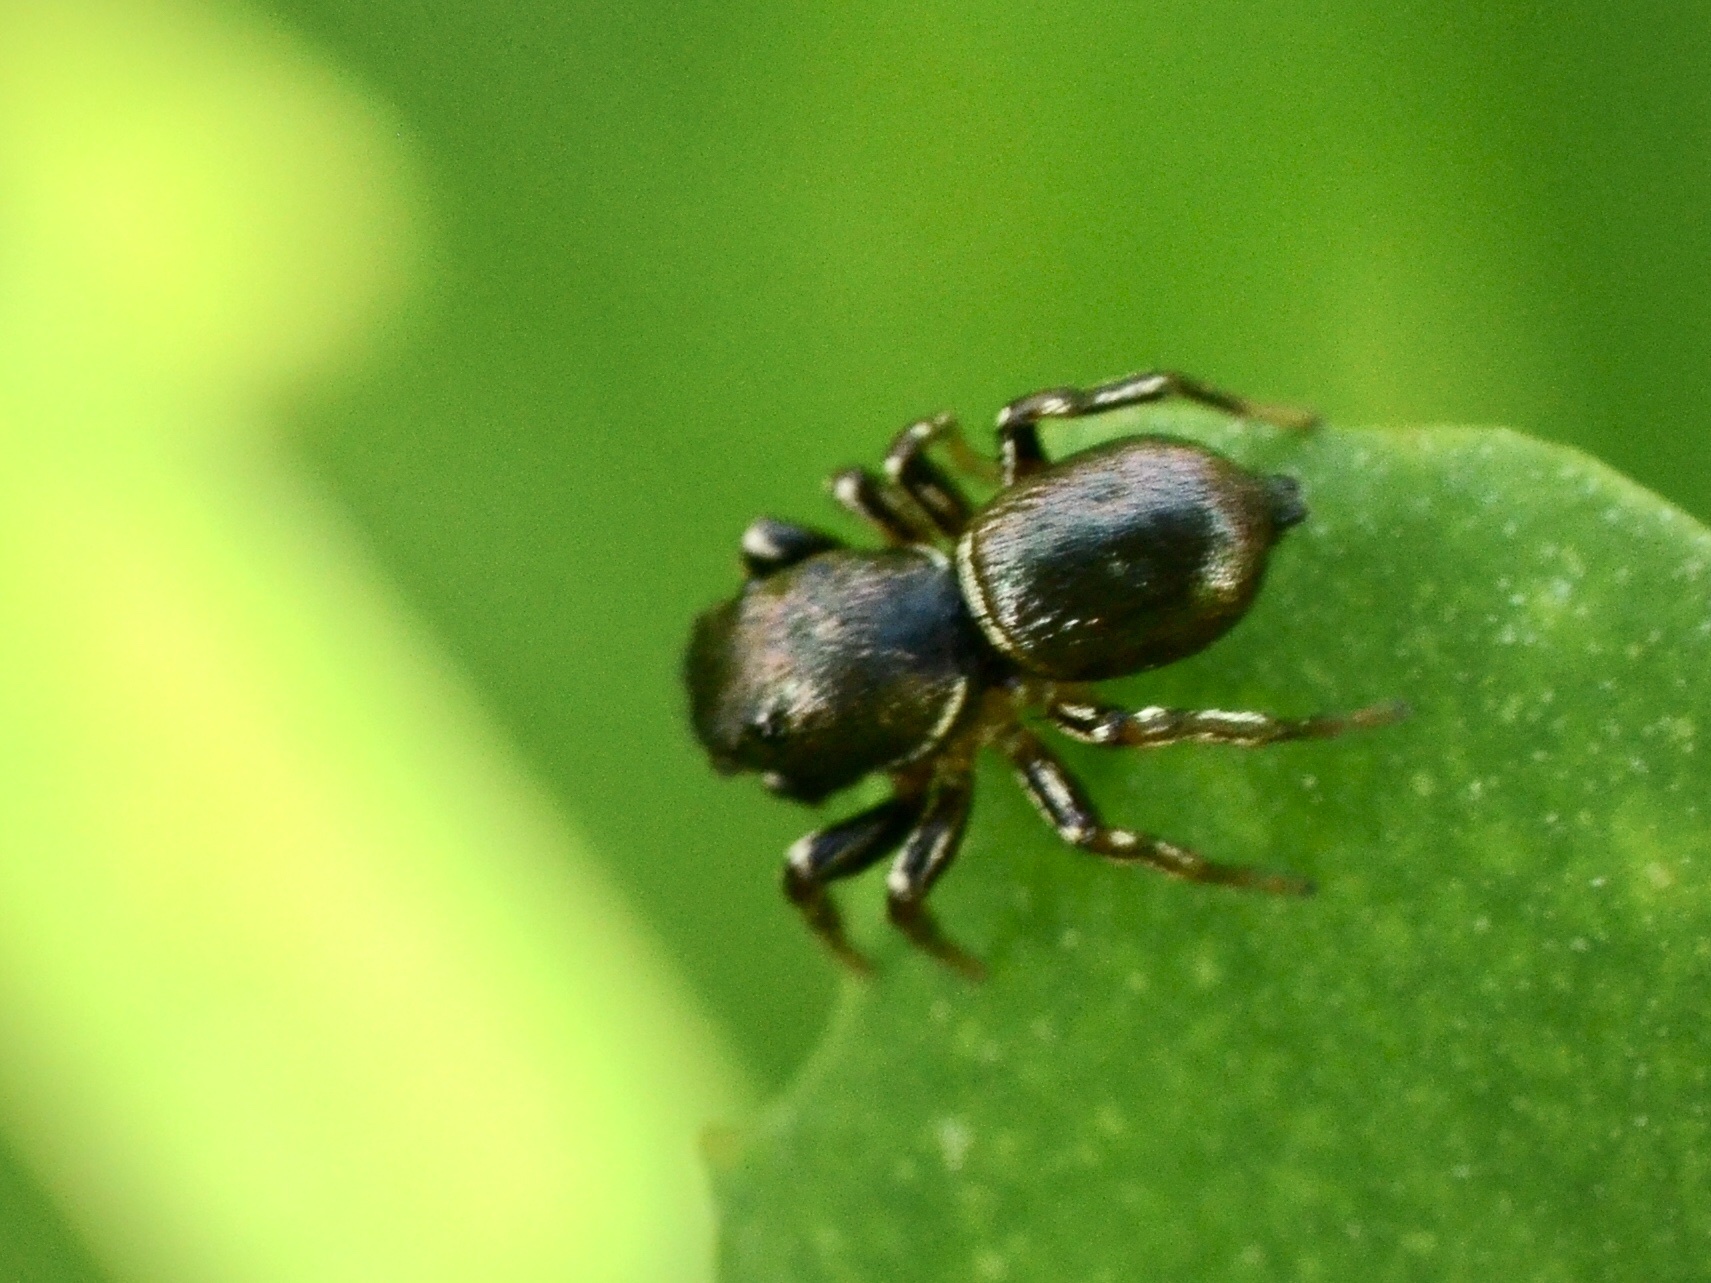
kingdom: Animalia
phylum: Arthropoda
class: Arachnida
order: Araneae
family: Salticidae
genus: Heliophanus
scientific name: Heliophanus auratus
